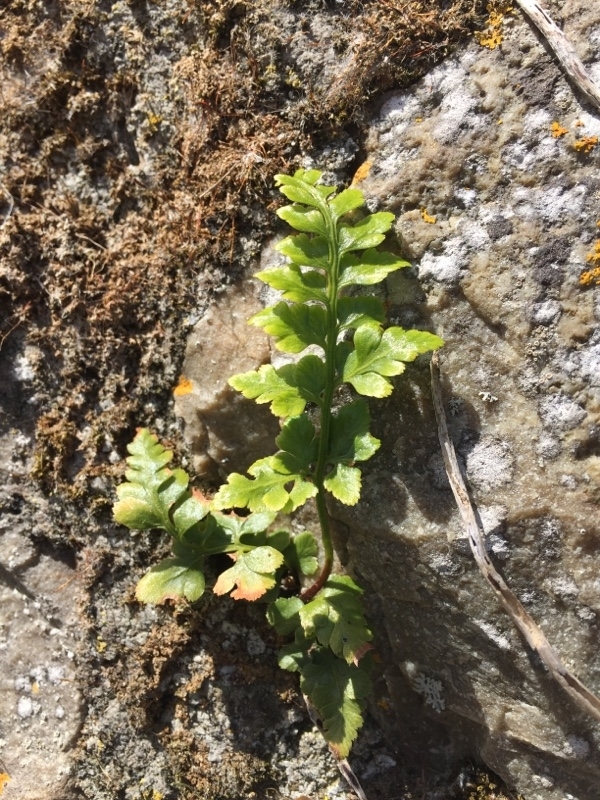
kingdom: Plantae
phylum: Tracheophyta
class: Polypodiopsida
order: Polypodiales
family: Aspleniaceae
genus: Asplenium
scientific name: Asplenium adiantum-nigrum
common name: Black spleenwort
